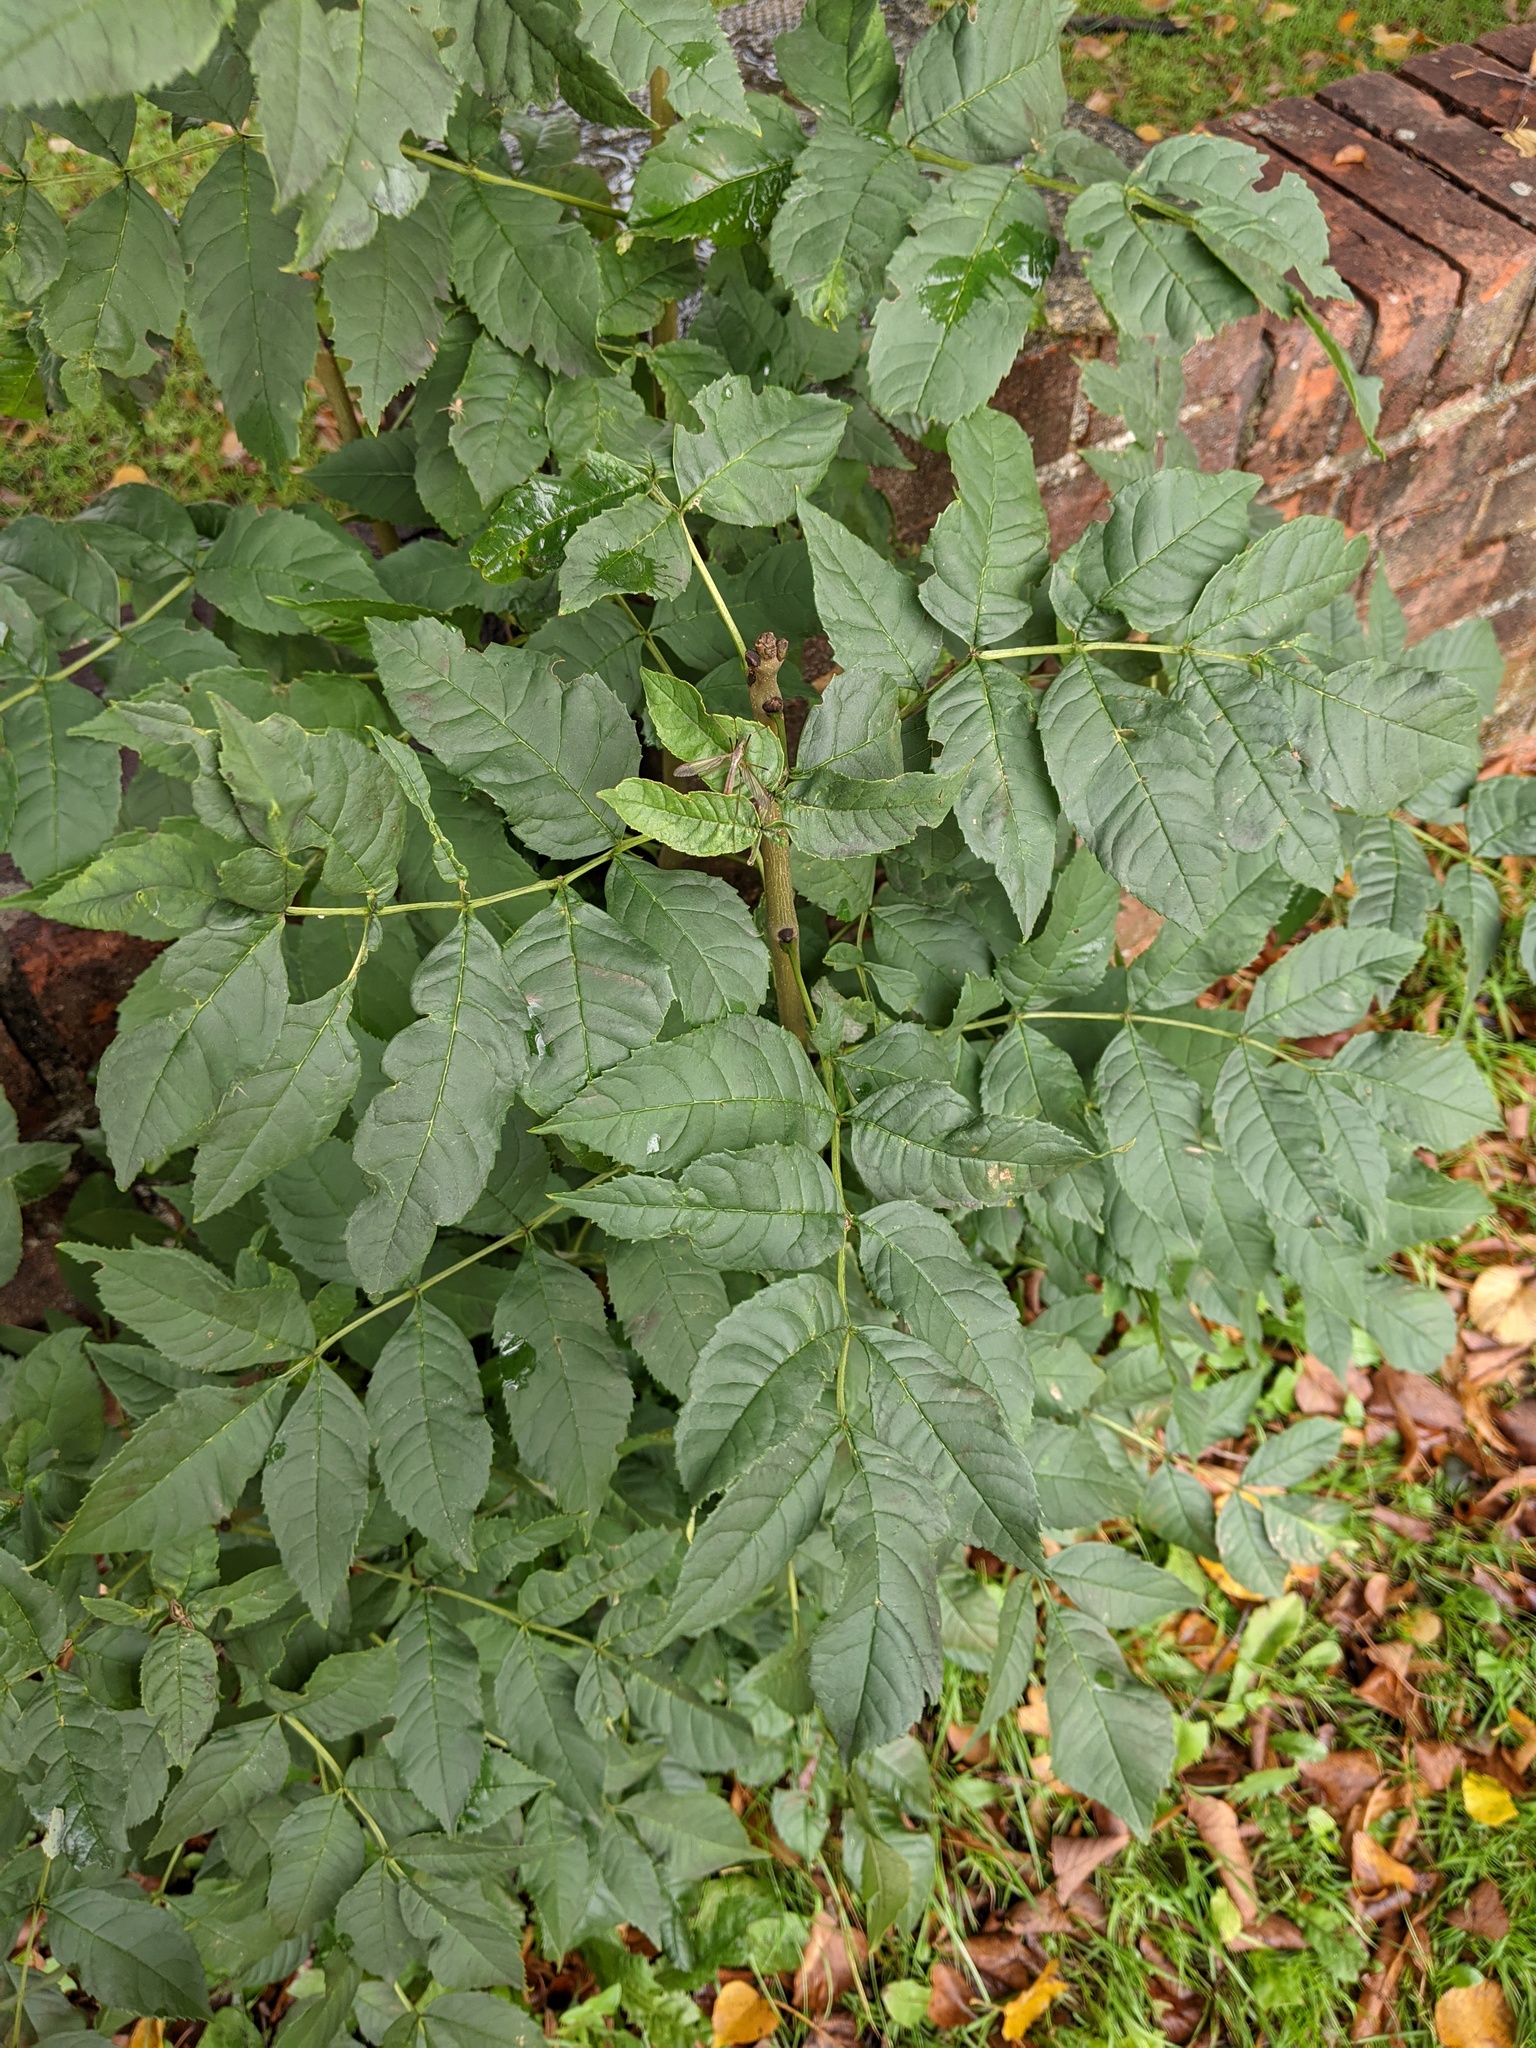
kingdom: Plantae
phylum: Tracheophyta
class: Magnoliopsida
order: Lamiales
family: Oleaceae
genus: Fraxinus
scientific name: Fraxinus excelsior
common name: European ash
